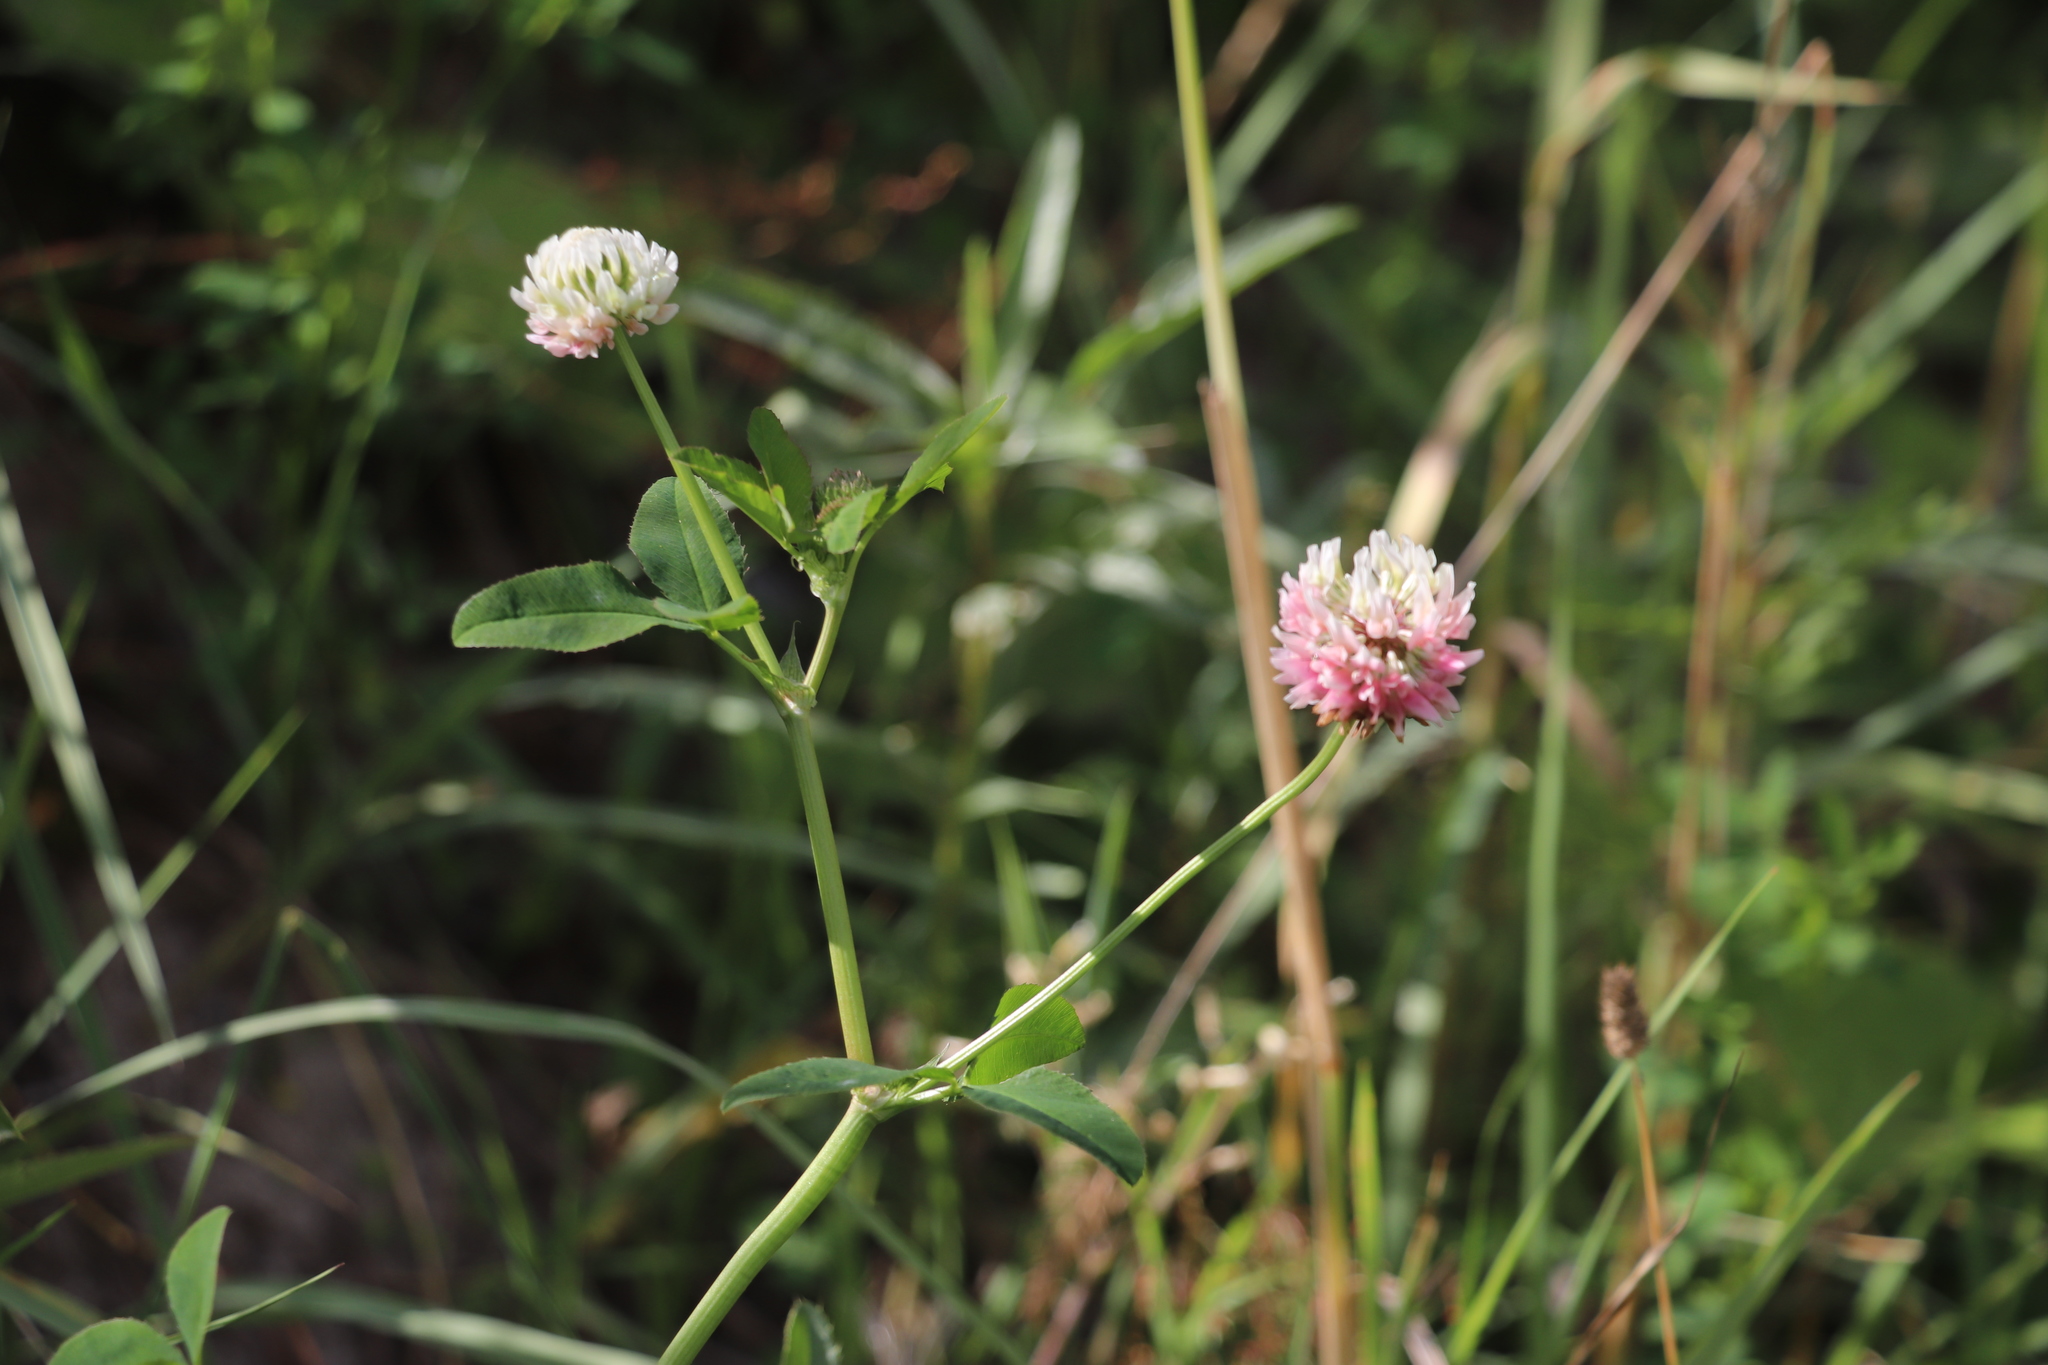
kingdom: Plantae
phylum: Tracheophyta
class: Magnoliopsida
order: Fabales
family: Fabaceae
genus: Trifolium
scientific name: Trifolium hybridum
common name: Alsike clover
